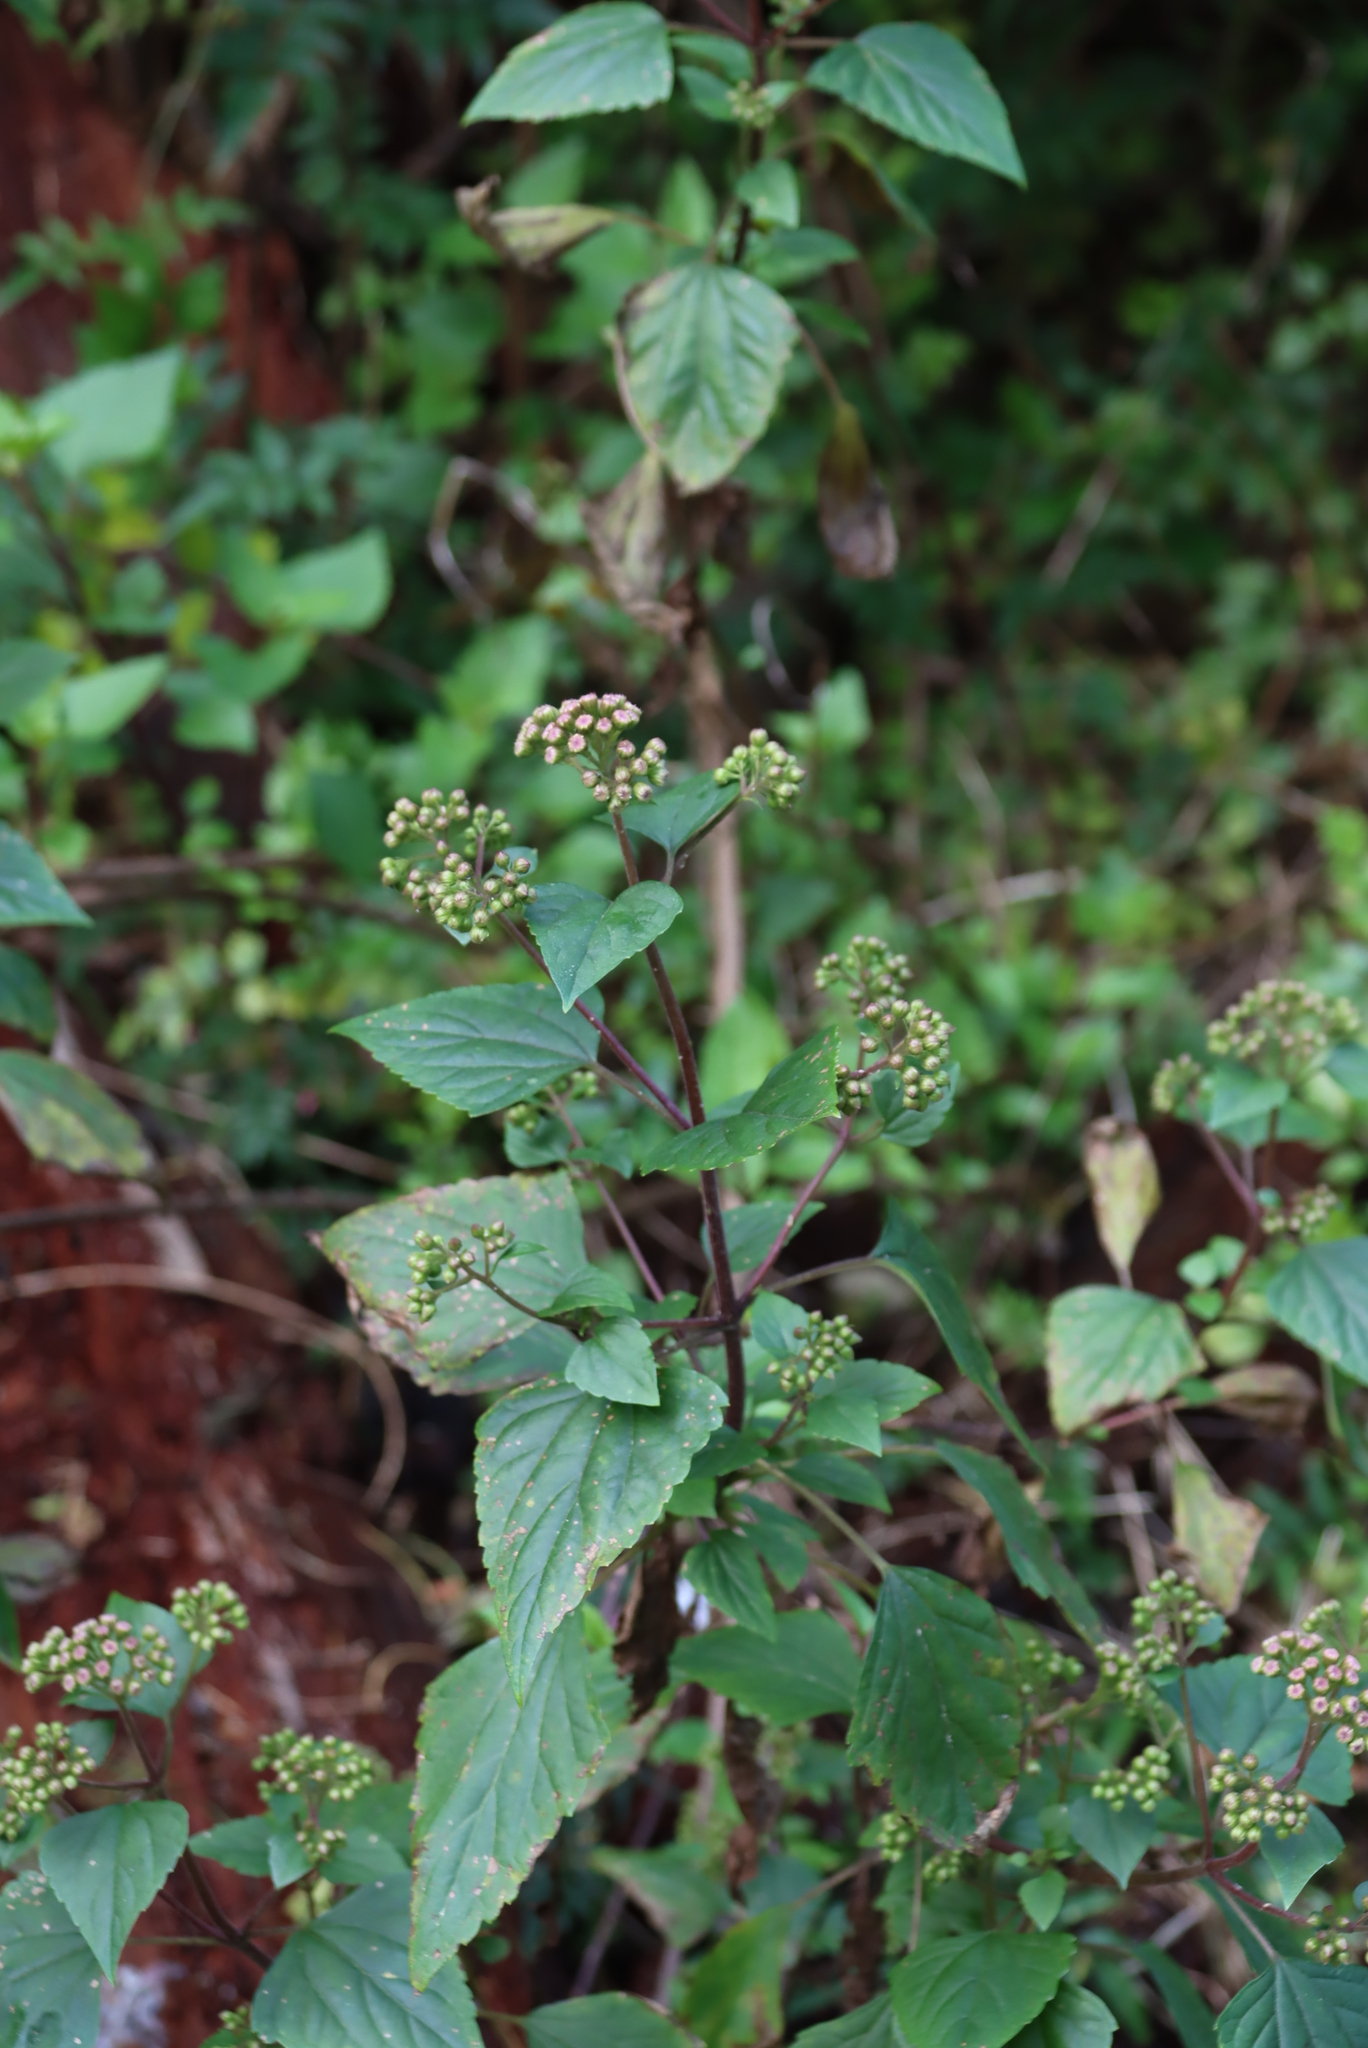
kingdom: Plantae
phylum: Tracheophyta
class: Magnoliopsida
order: Asterales
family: Asteraceae
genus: Ageratina
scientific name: Ageratina adenophora
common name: Sticky snakeroot
